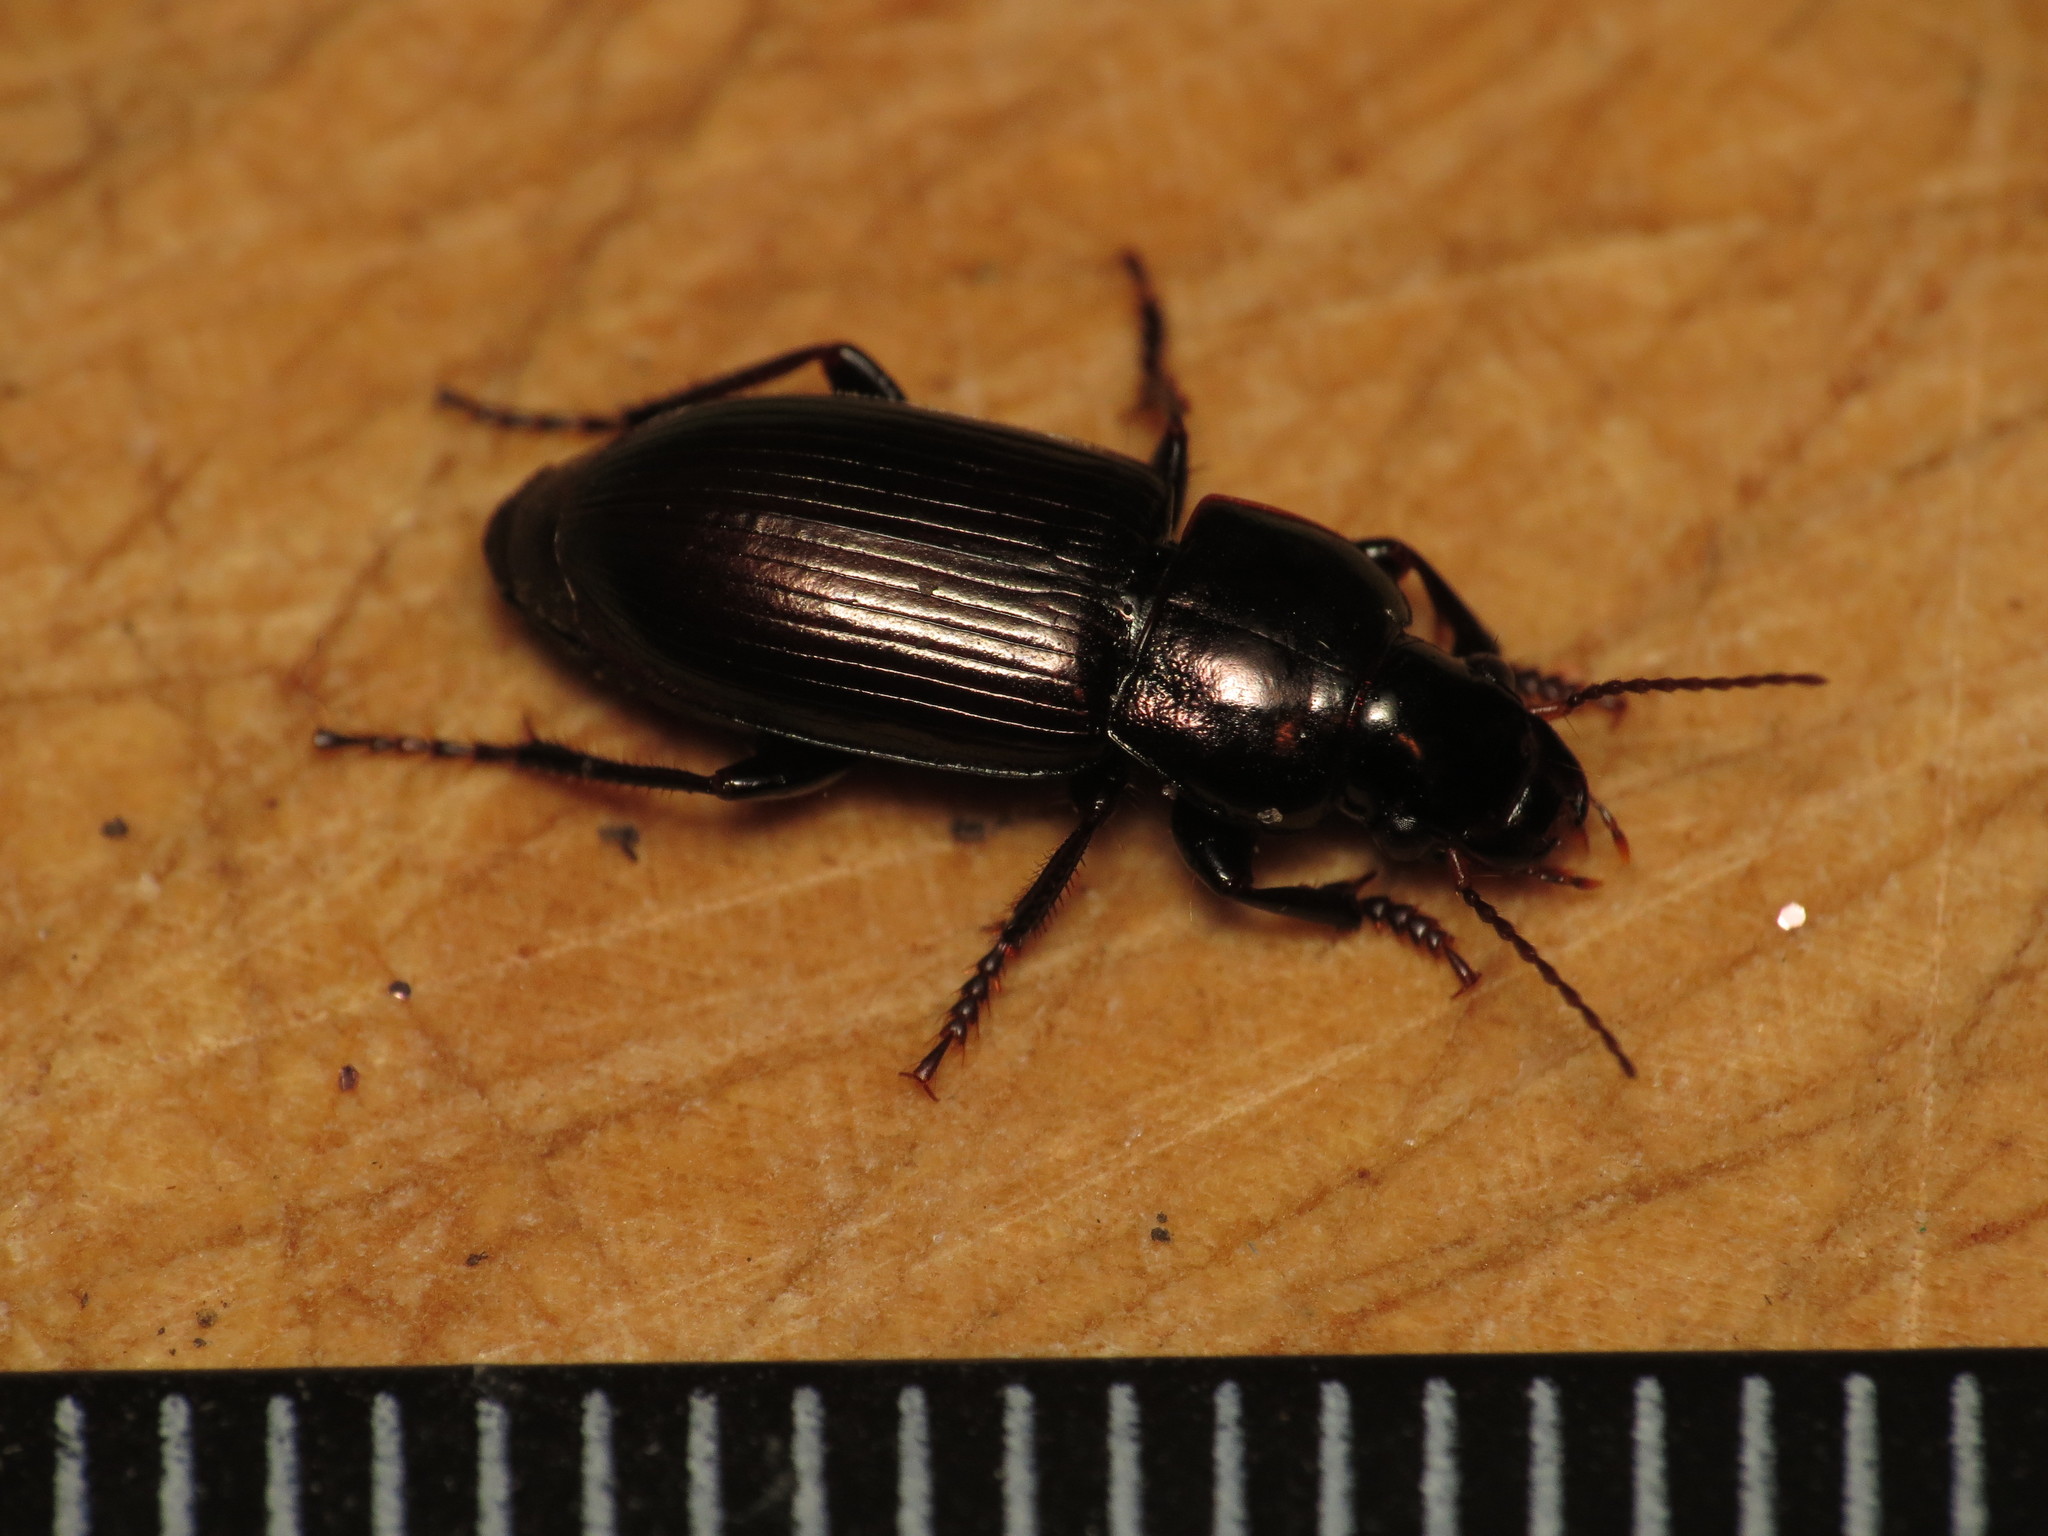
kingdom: Animalia
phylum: Arthropoda
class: Insecta
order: Coleoptera
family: Carabidae
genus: Harpalus
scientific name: Harpalus affinis
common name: Polychrome harp ground beetle
